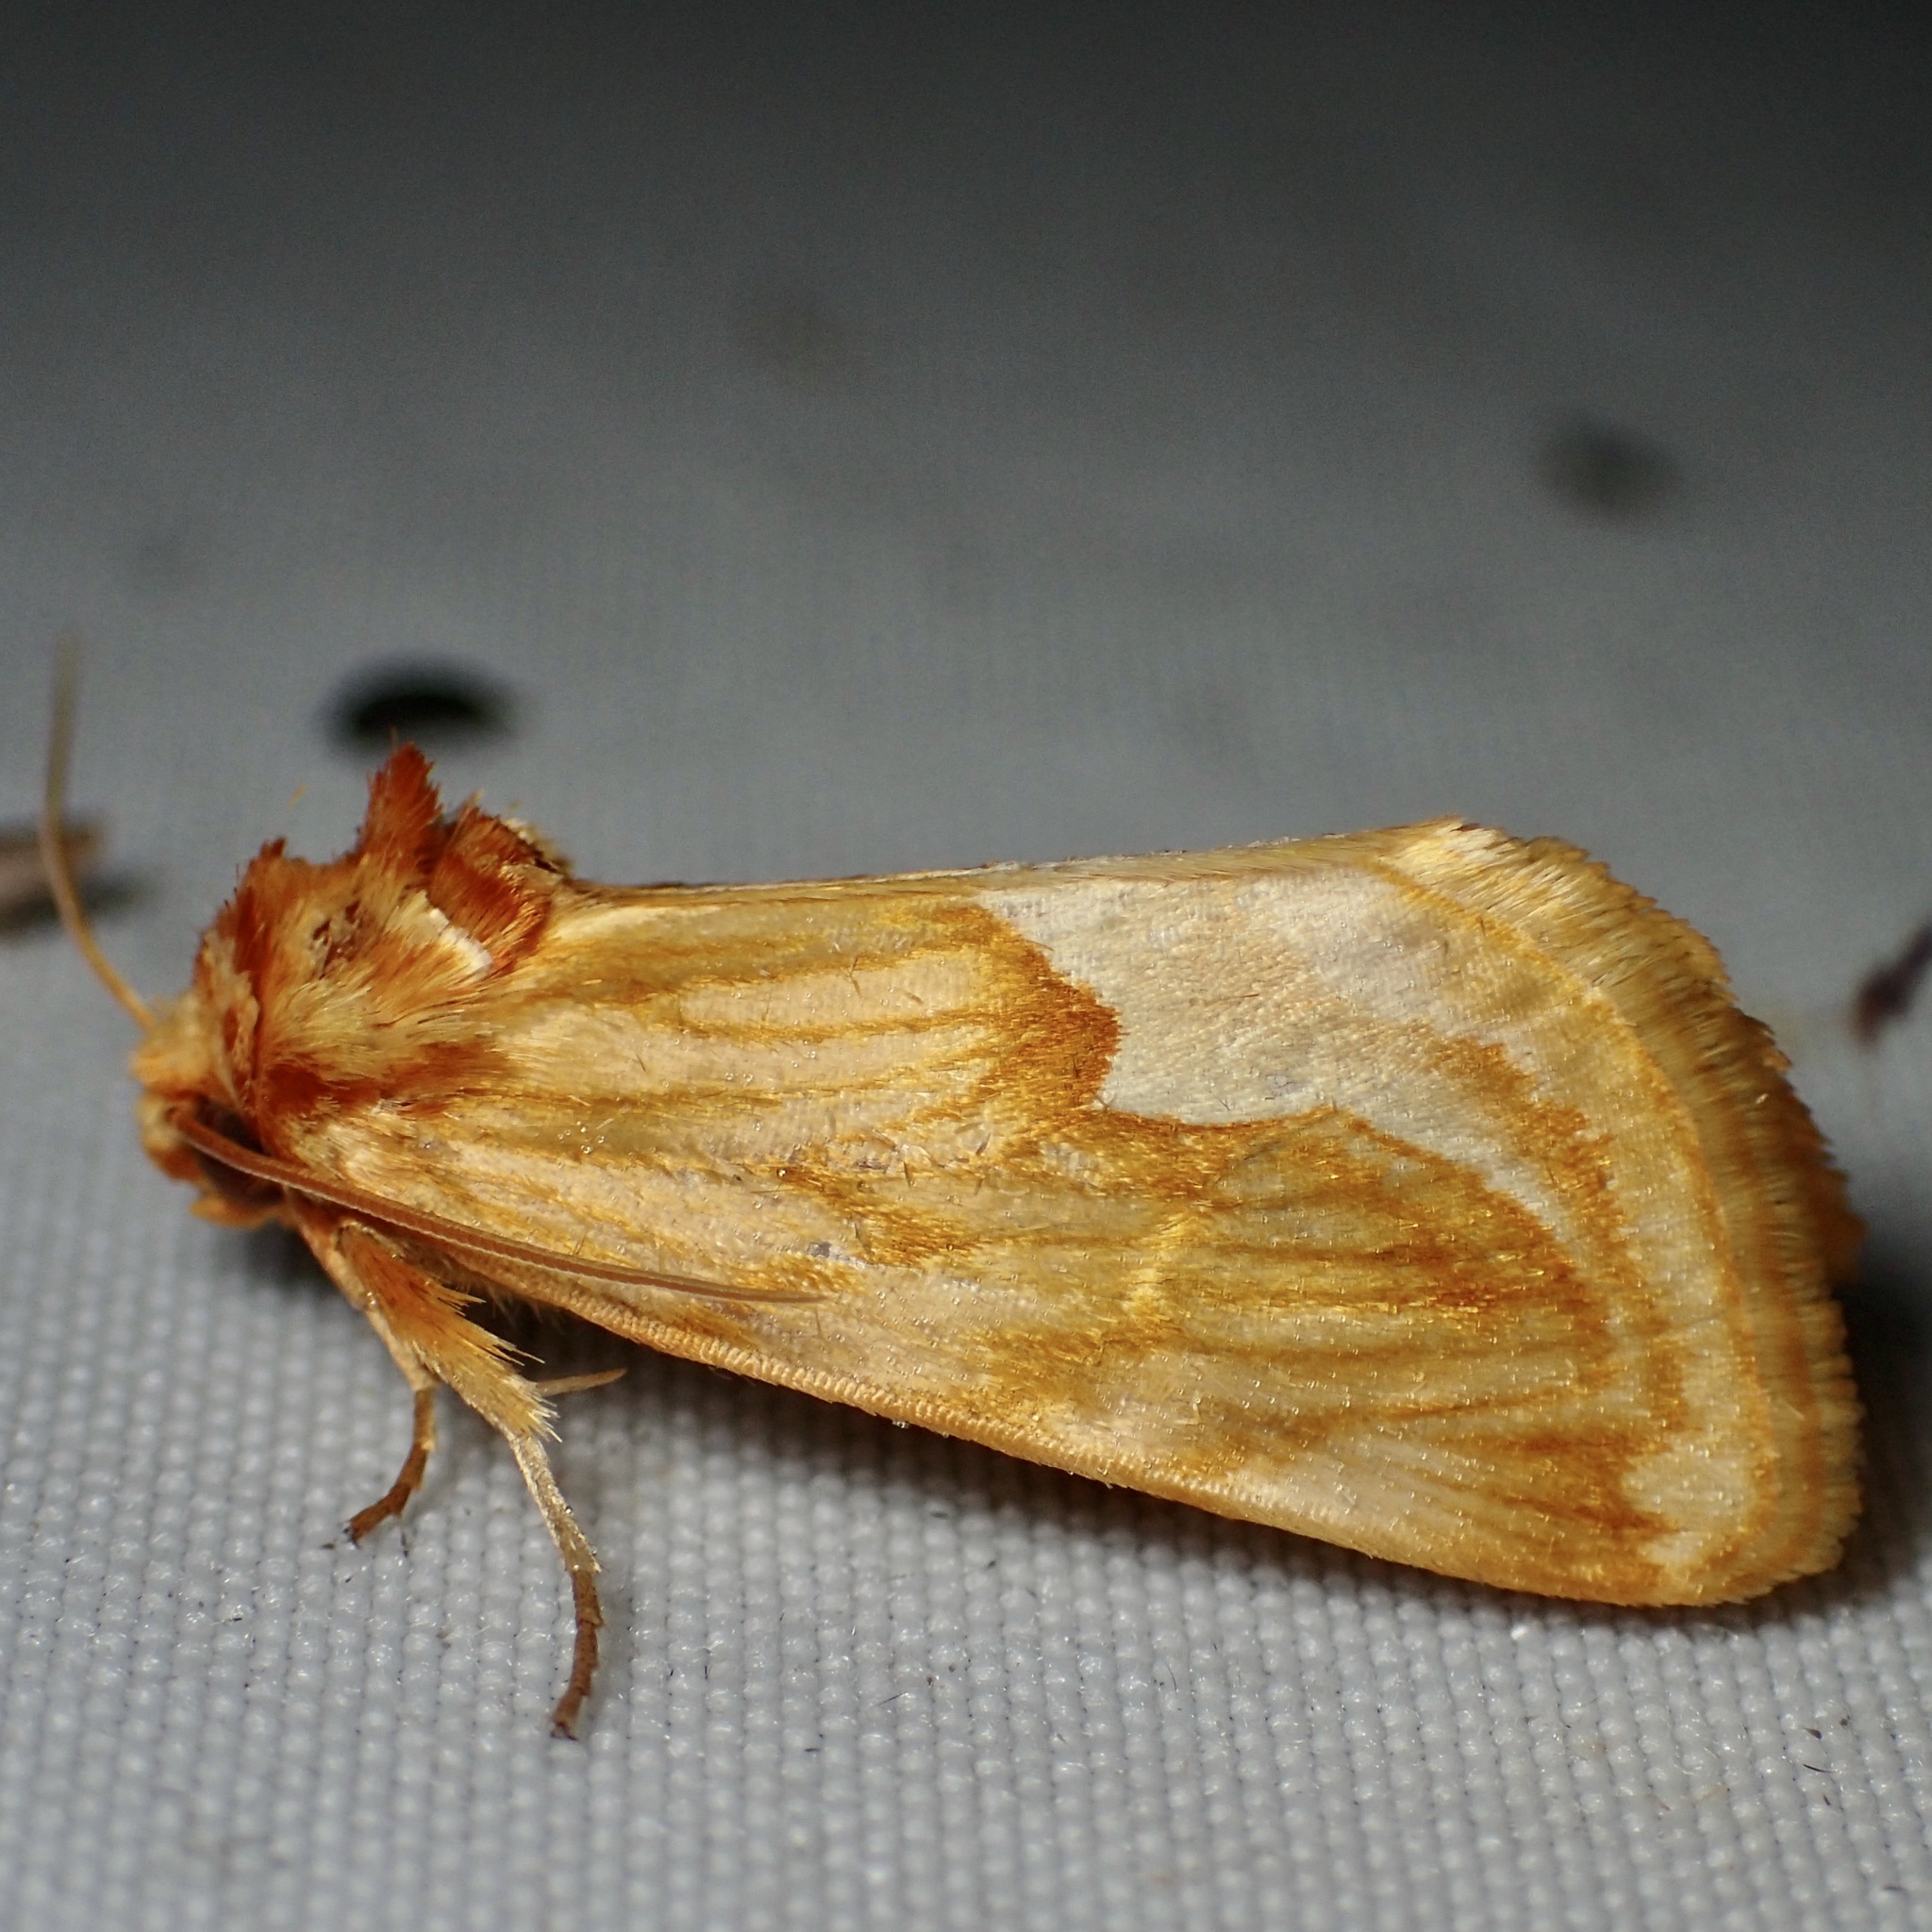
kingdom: Animalia
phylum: Arthropoda
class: Insecta
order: Lepidoptera
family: Noctuidae
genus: Cirrhophanus
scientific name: Cirrhophanus dyari
